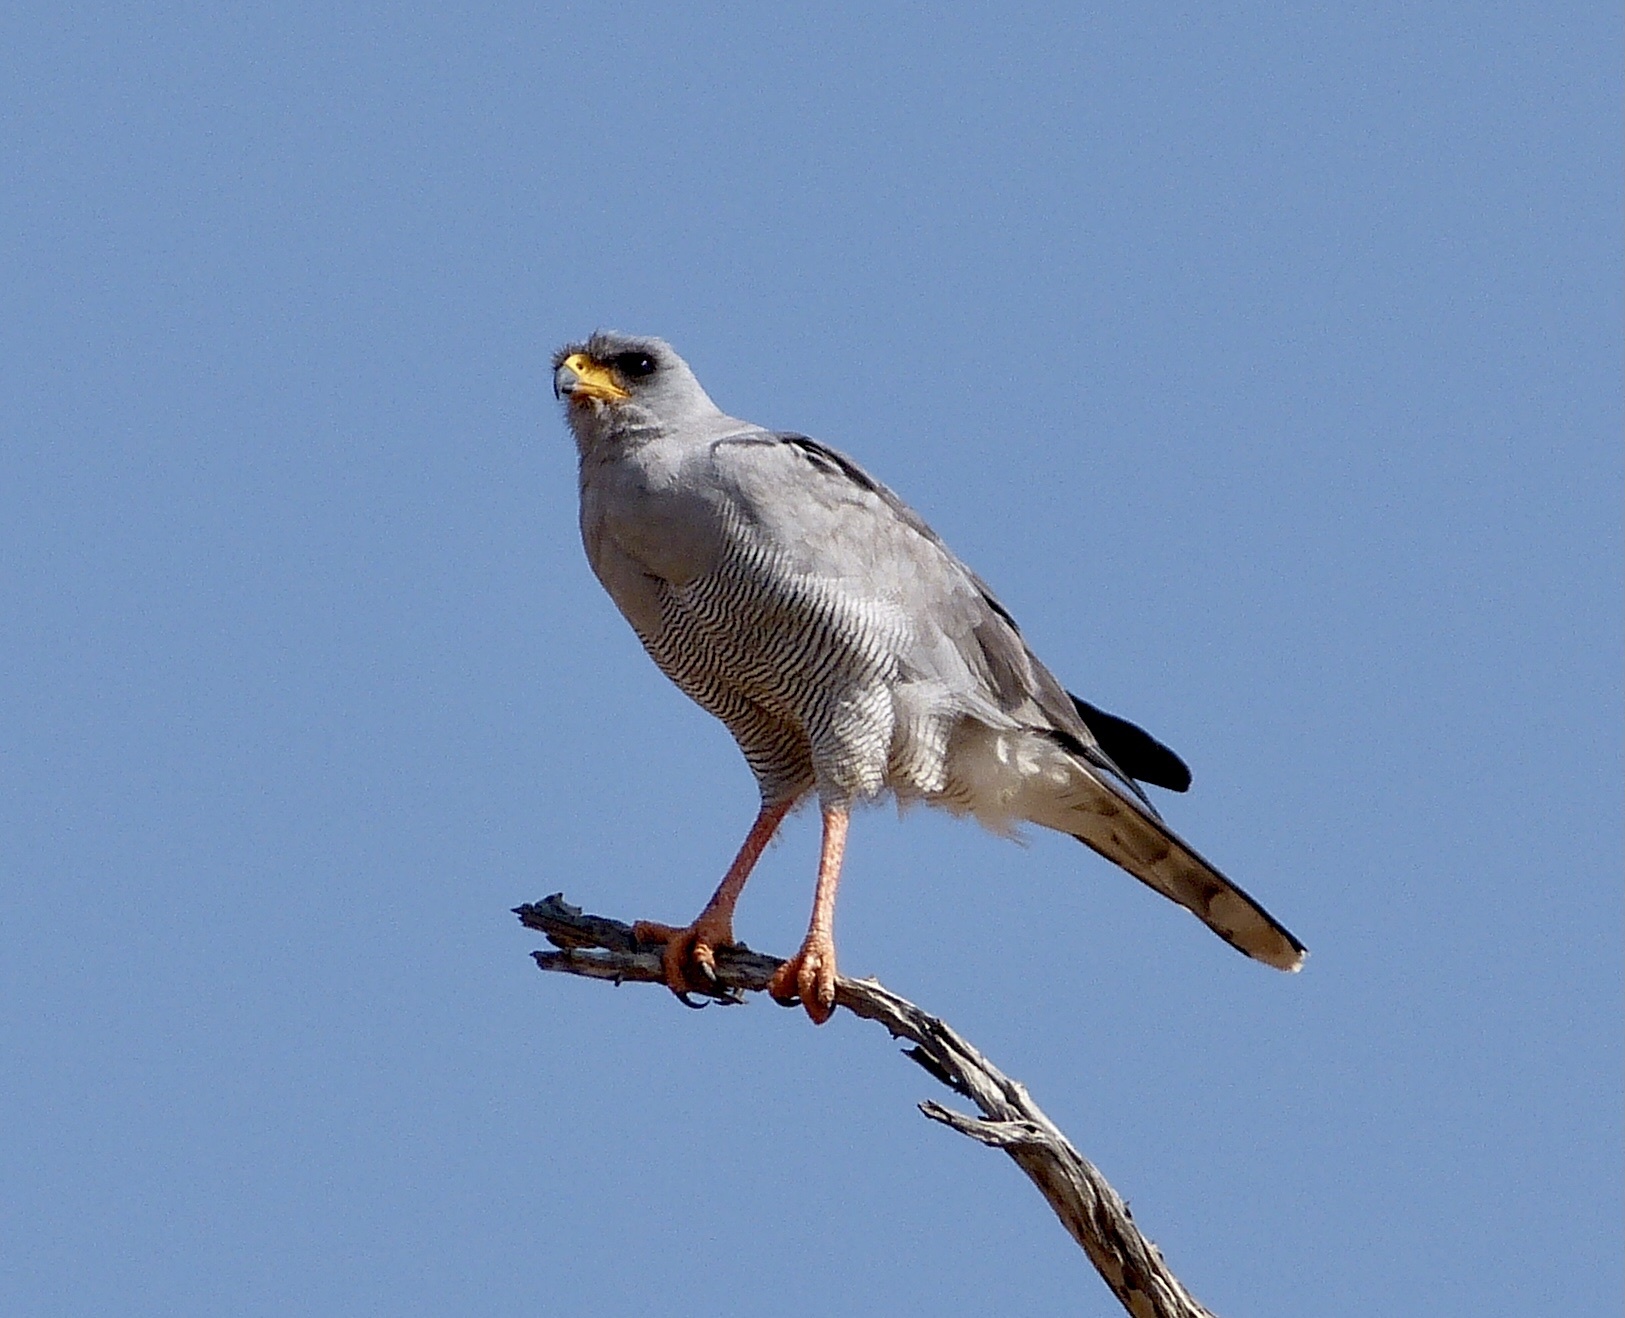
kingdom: Animalia
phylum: Chordata
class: Aves
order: Accipitriformes
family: Accipitridae
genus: Melierax
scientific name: Melierax poliopterus
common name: Eastern chanting goshawk
